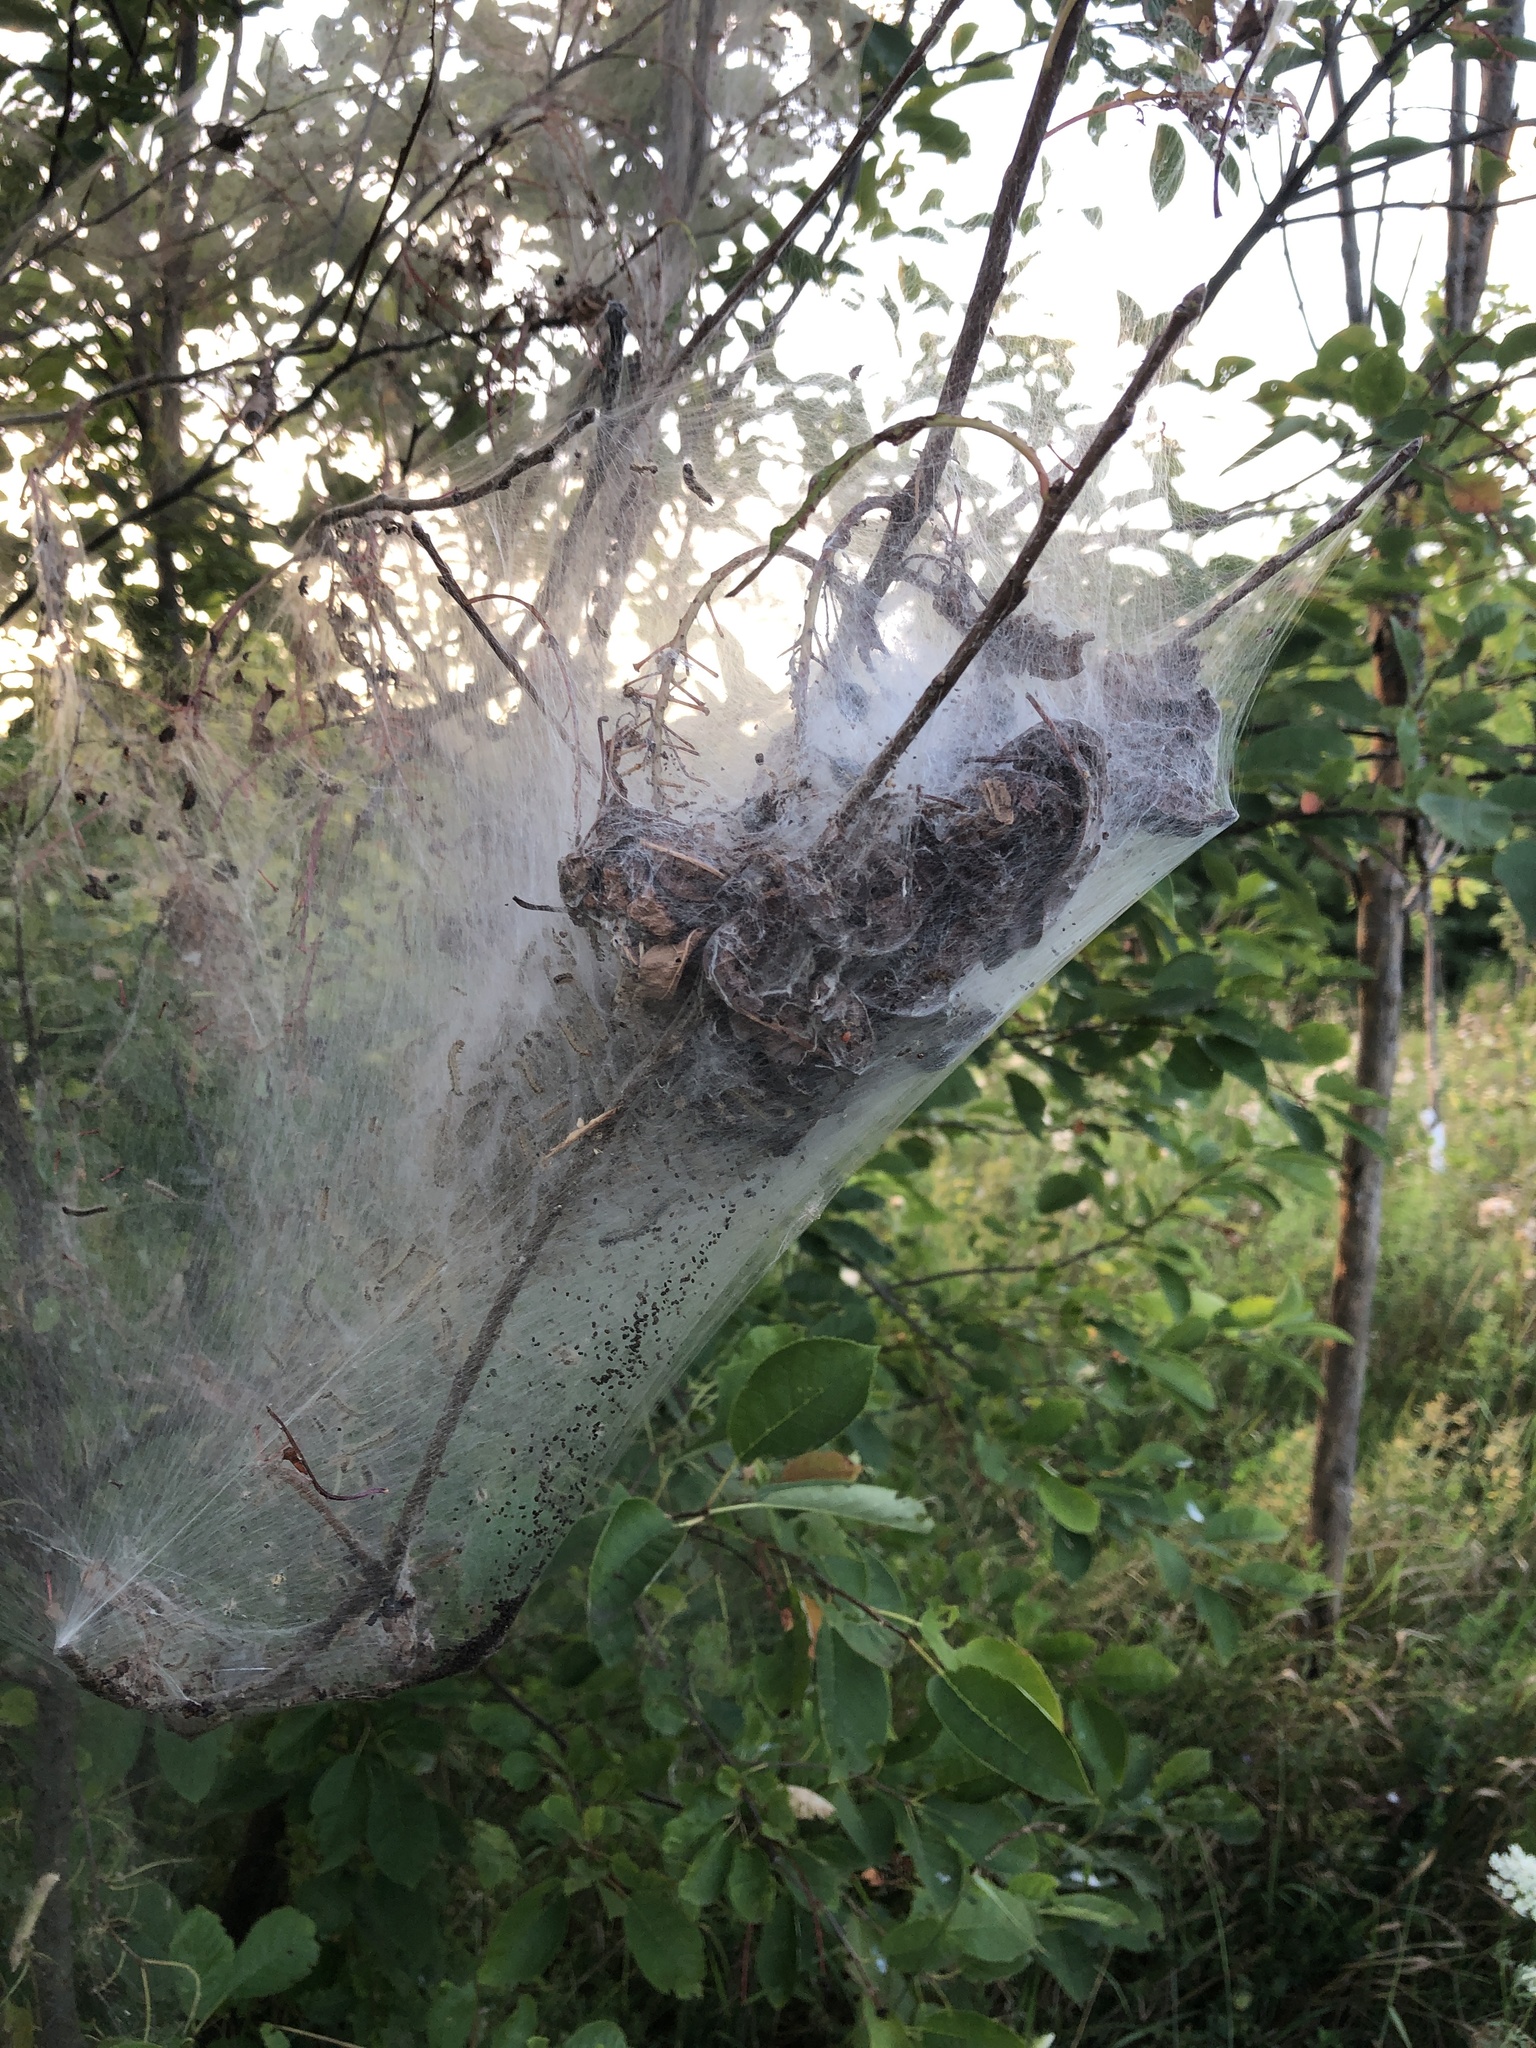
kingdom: Animalia
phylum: Arthropoda
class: Insecta
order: Lepidoptera
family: Erebidae
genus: Hyphantria
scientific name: Hyphantria cunea
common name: American white moth
